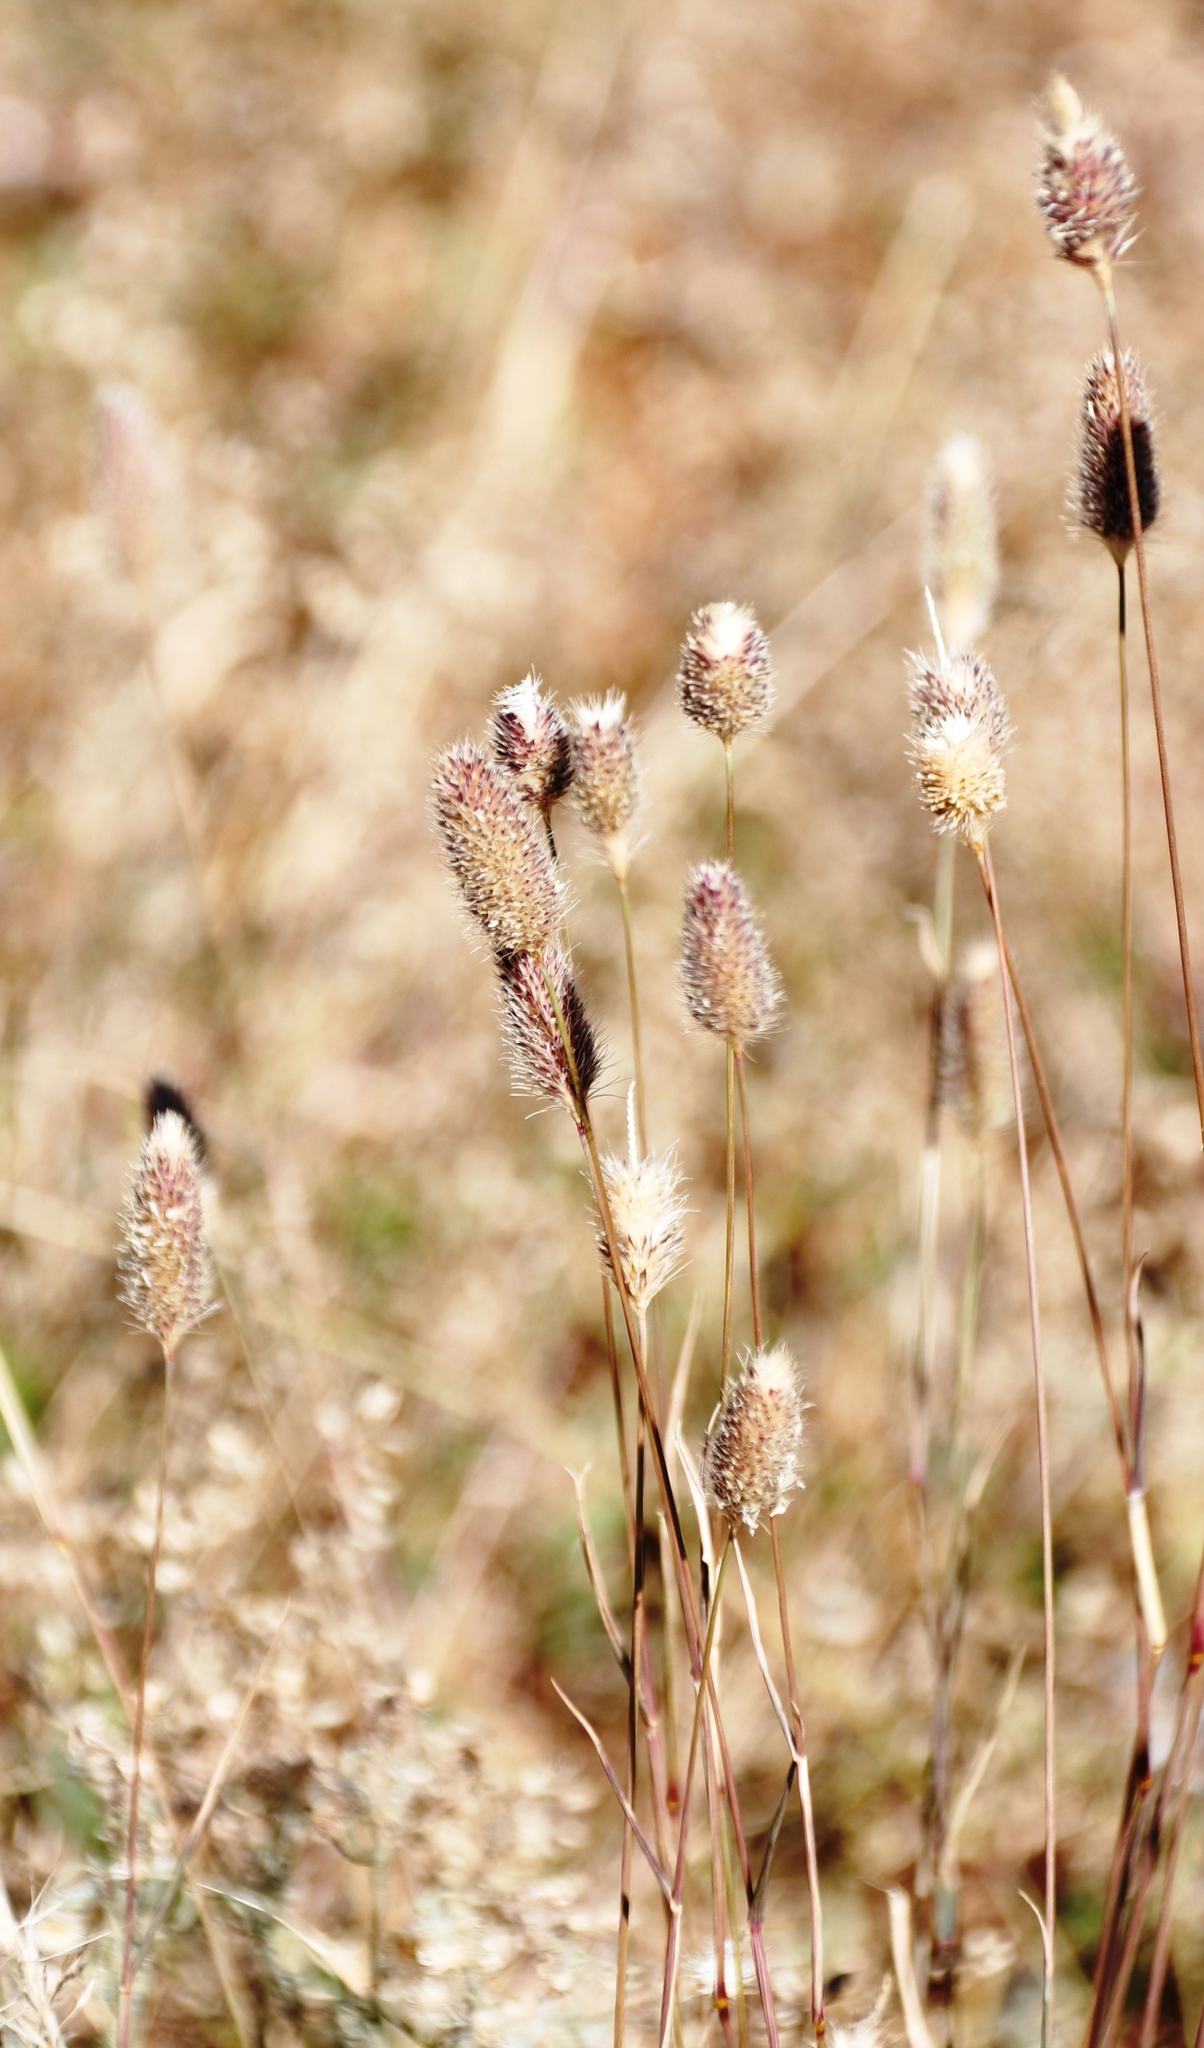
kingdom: Plantae
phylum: Tracheophyta
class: Liliopsida
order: Poales
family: Poaceae
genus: Fingerhuthia
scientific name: Fingerhuthia africana
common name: Zulu fescue
